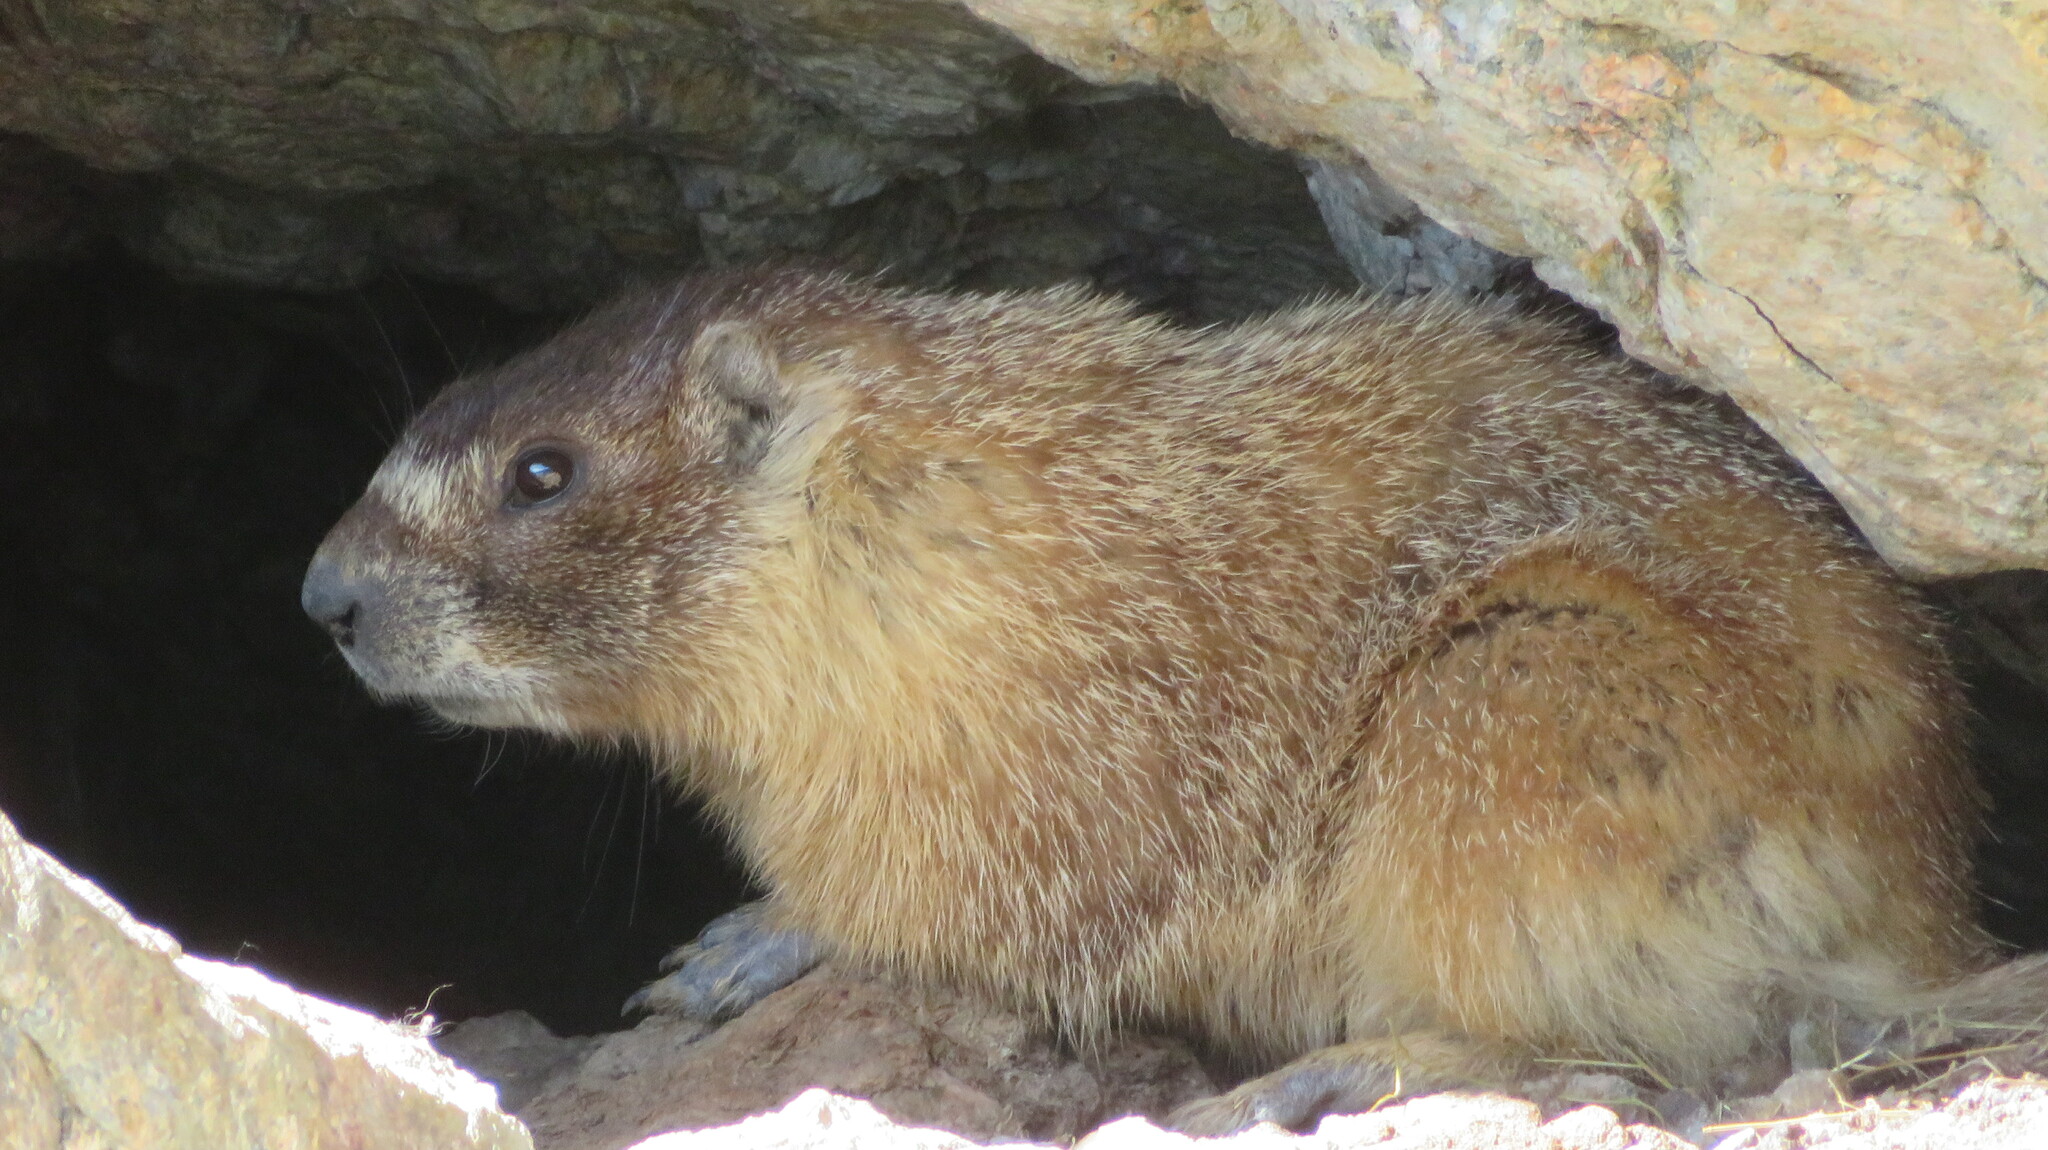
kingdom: Animalia
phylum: Chordata
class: Mammalia
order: Rodentia
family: Sciuridae
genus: Marmota
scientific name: Marmota flaviventris
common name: Yellow-bellied marmot
